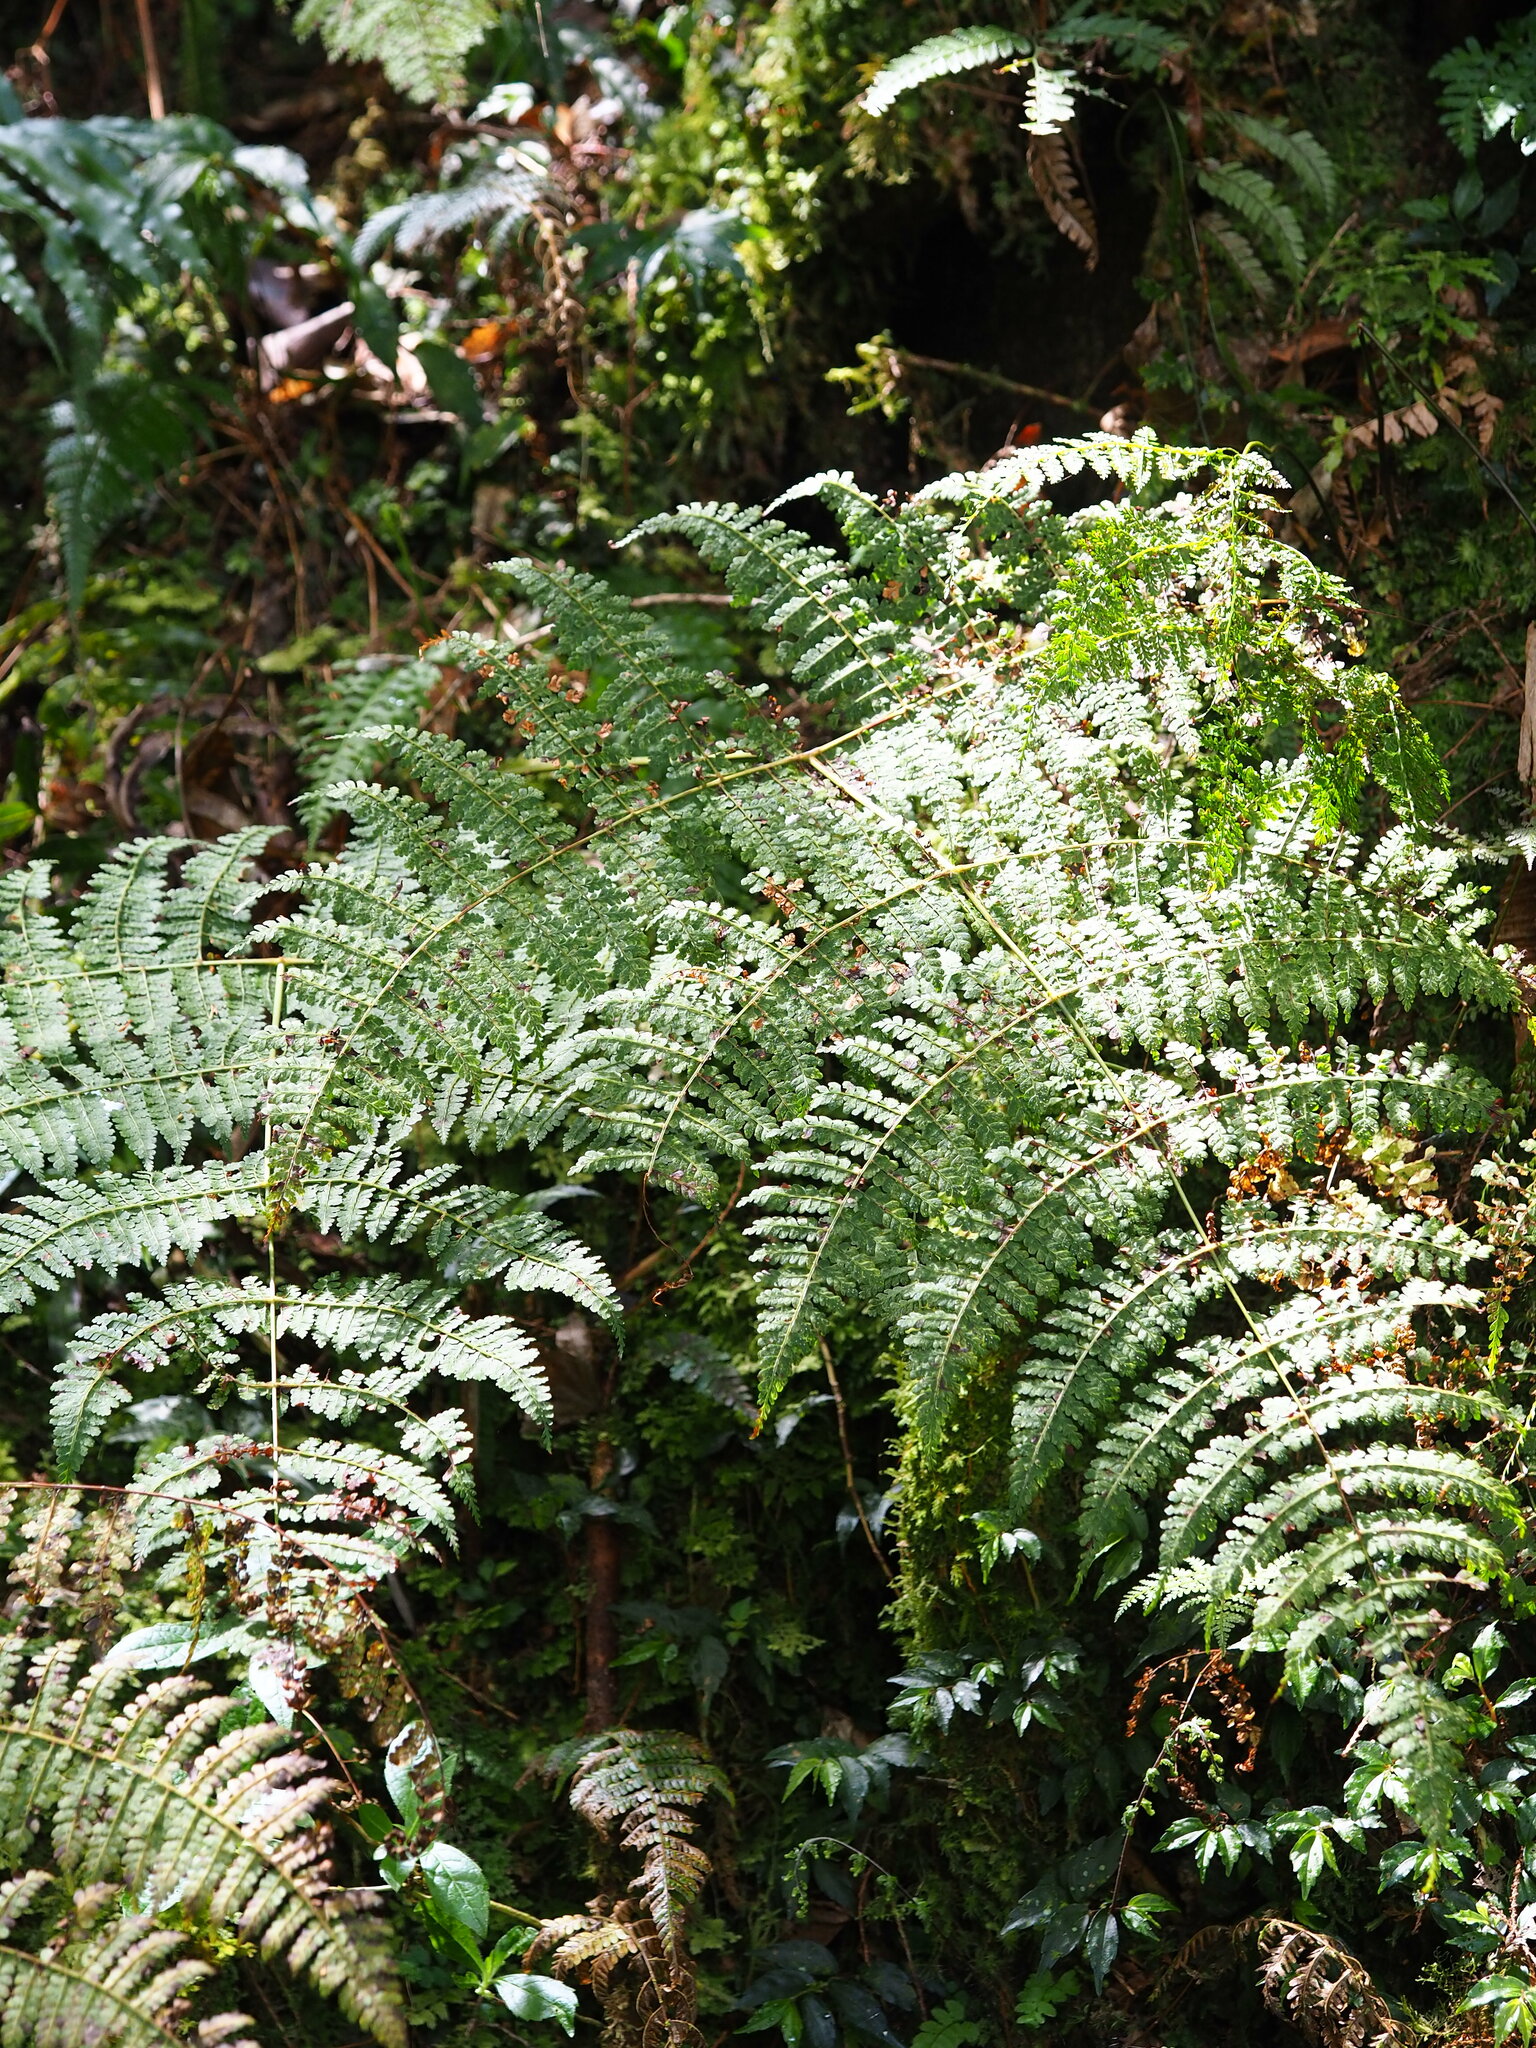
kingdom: Plantae
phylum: Tracheophyta
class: Polypodiopsida
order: Polypodiales
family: Dennstaedtiaceae
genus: Monachosorum
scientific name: Monachosorum henryi
